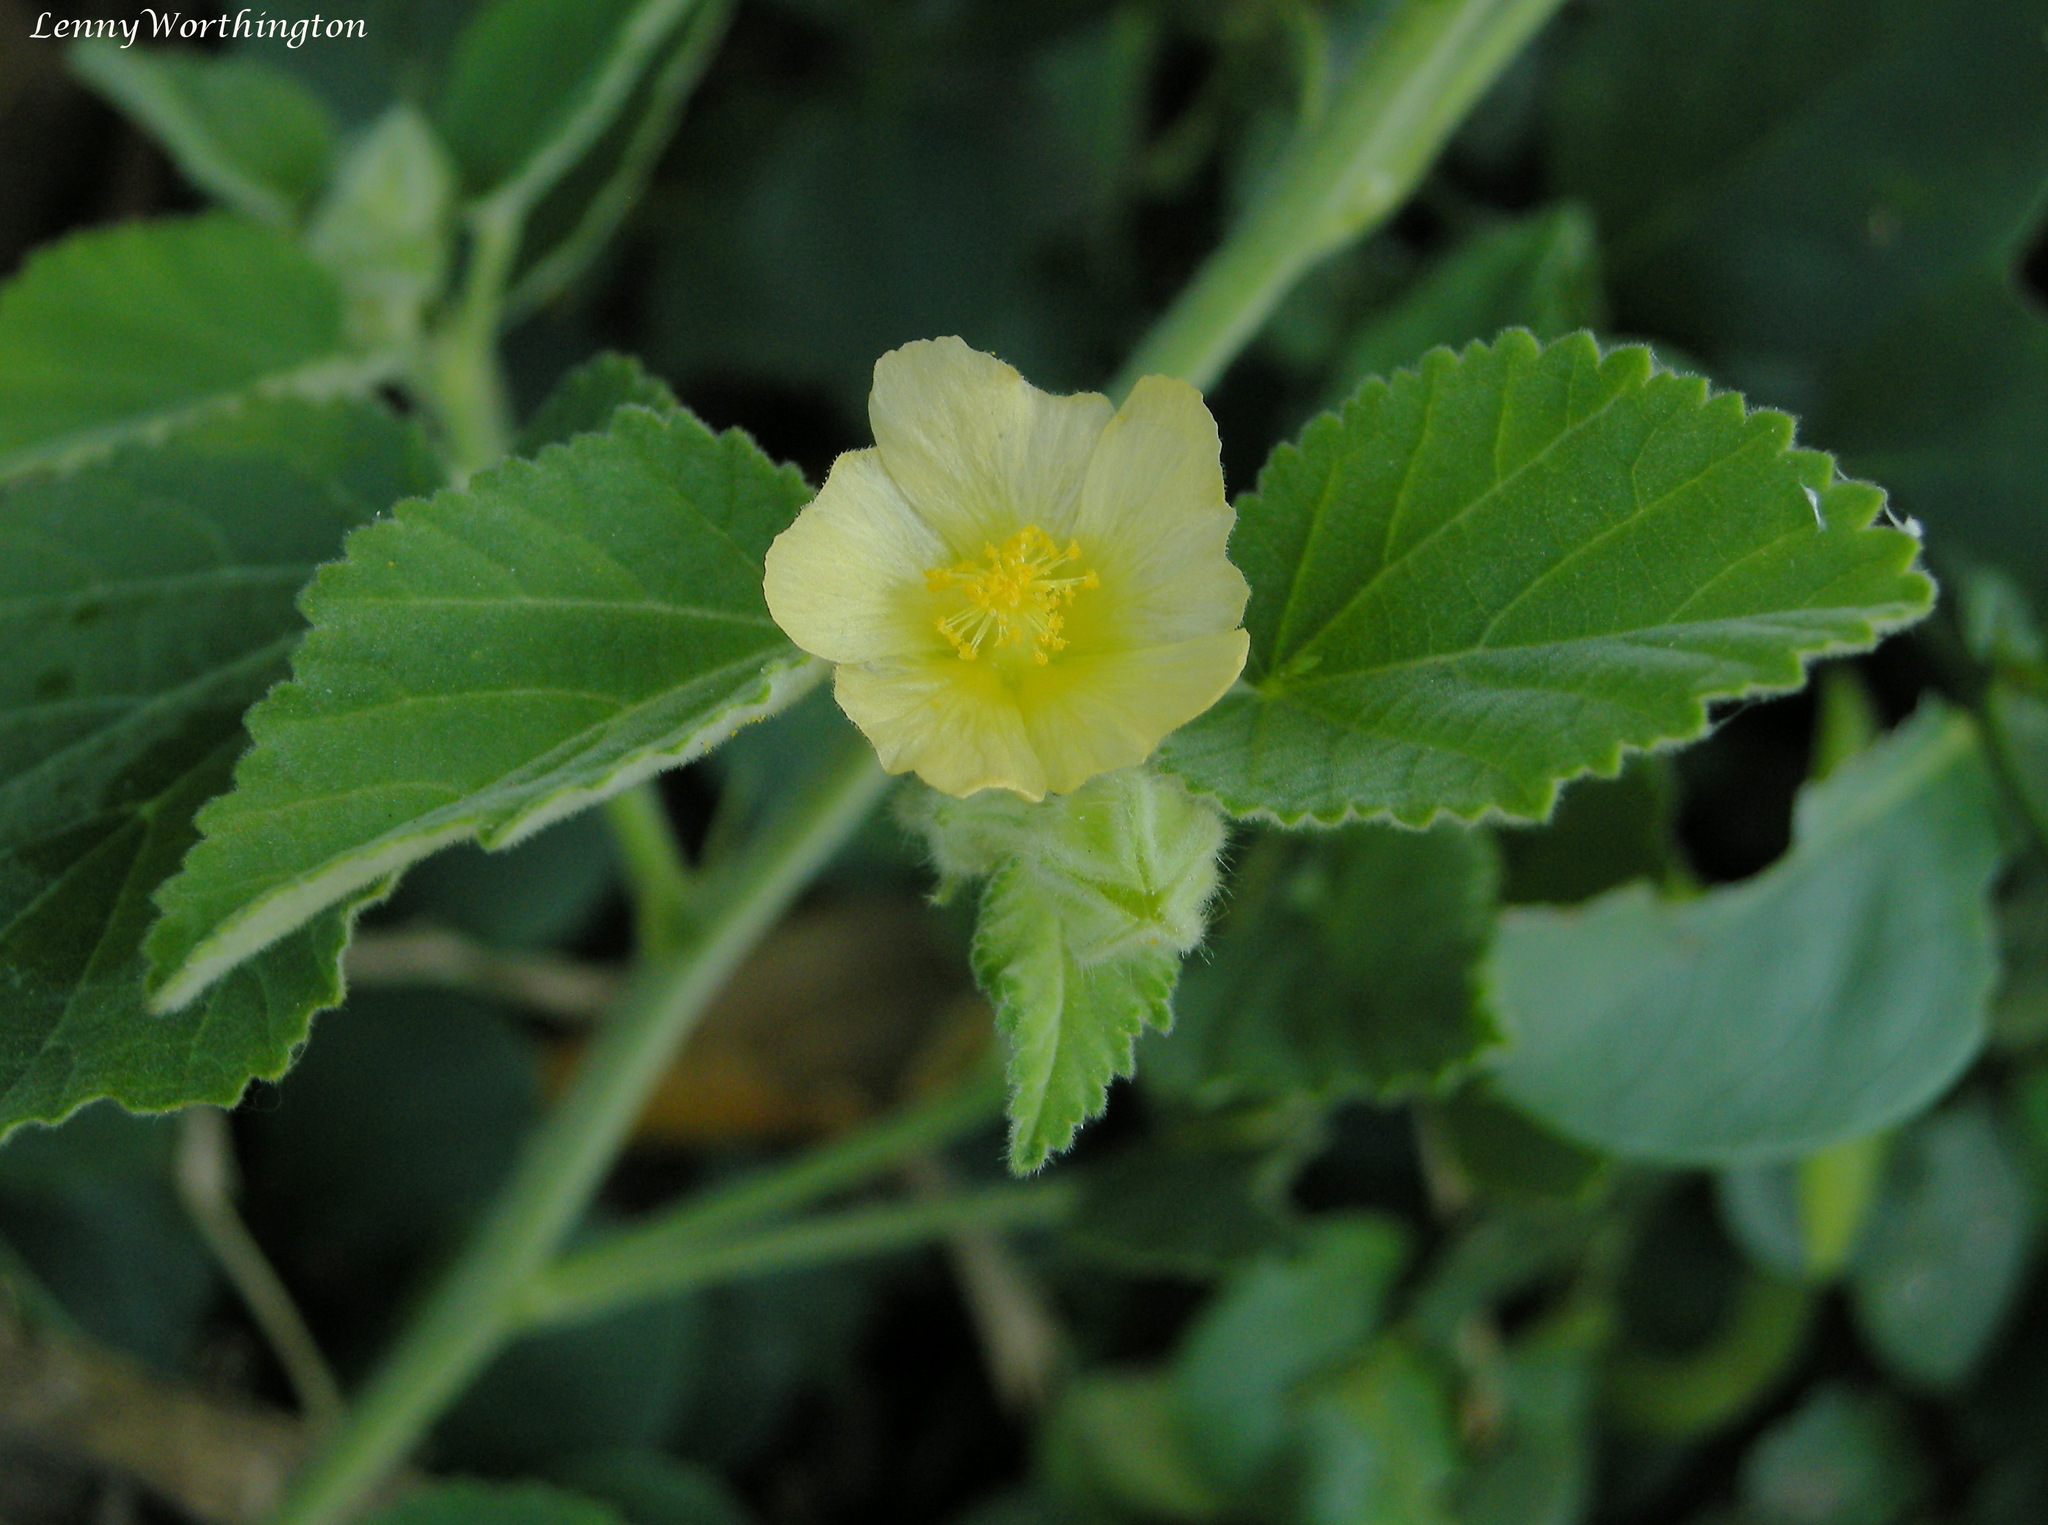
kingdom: Plantae
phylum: Tracheophyta
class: Magnoliopsida
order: Malvales
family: Malvaceae
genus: Sida
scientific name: Sida spinosa
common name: Prickly fanpetals
